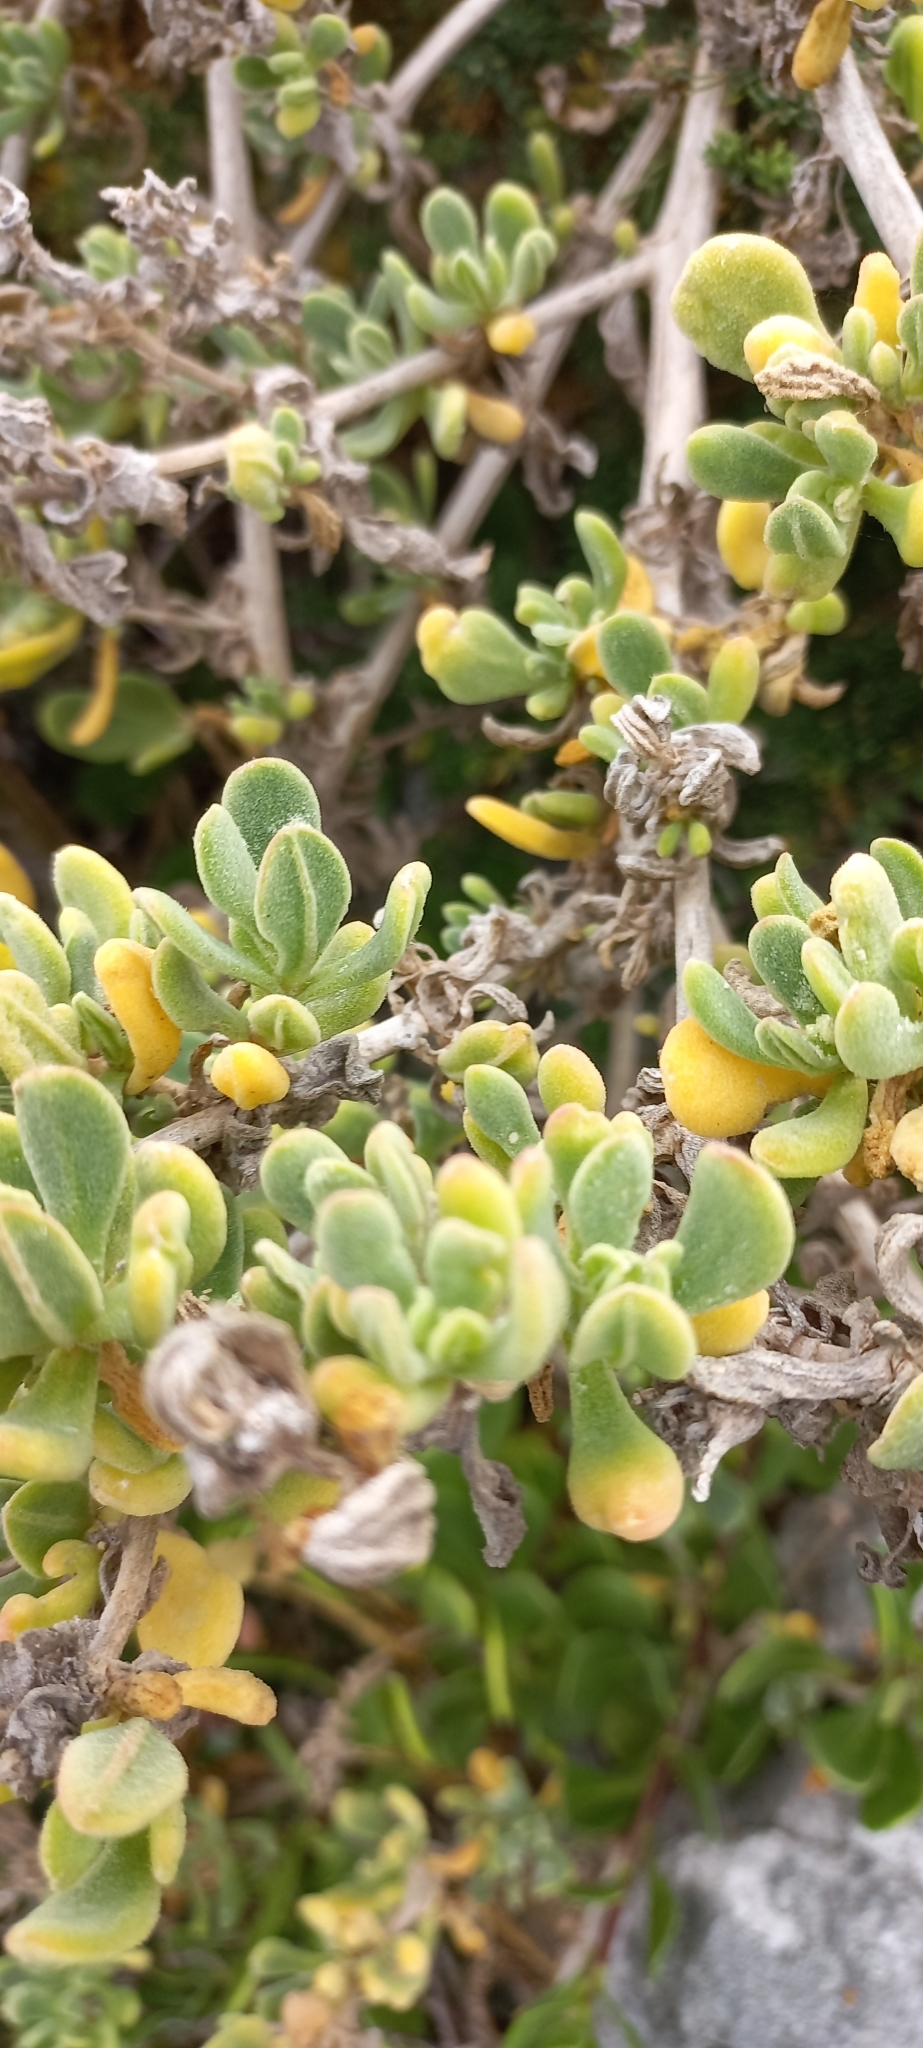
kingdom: Plantae
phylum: Tracheophyta
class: Magnoliopsida
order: Caryophyllales
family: Aizoaceae
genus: Tetragonia
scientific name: Tetragonia decumbens
